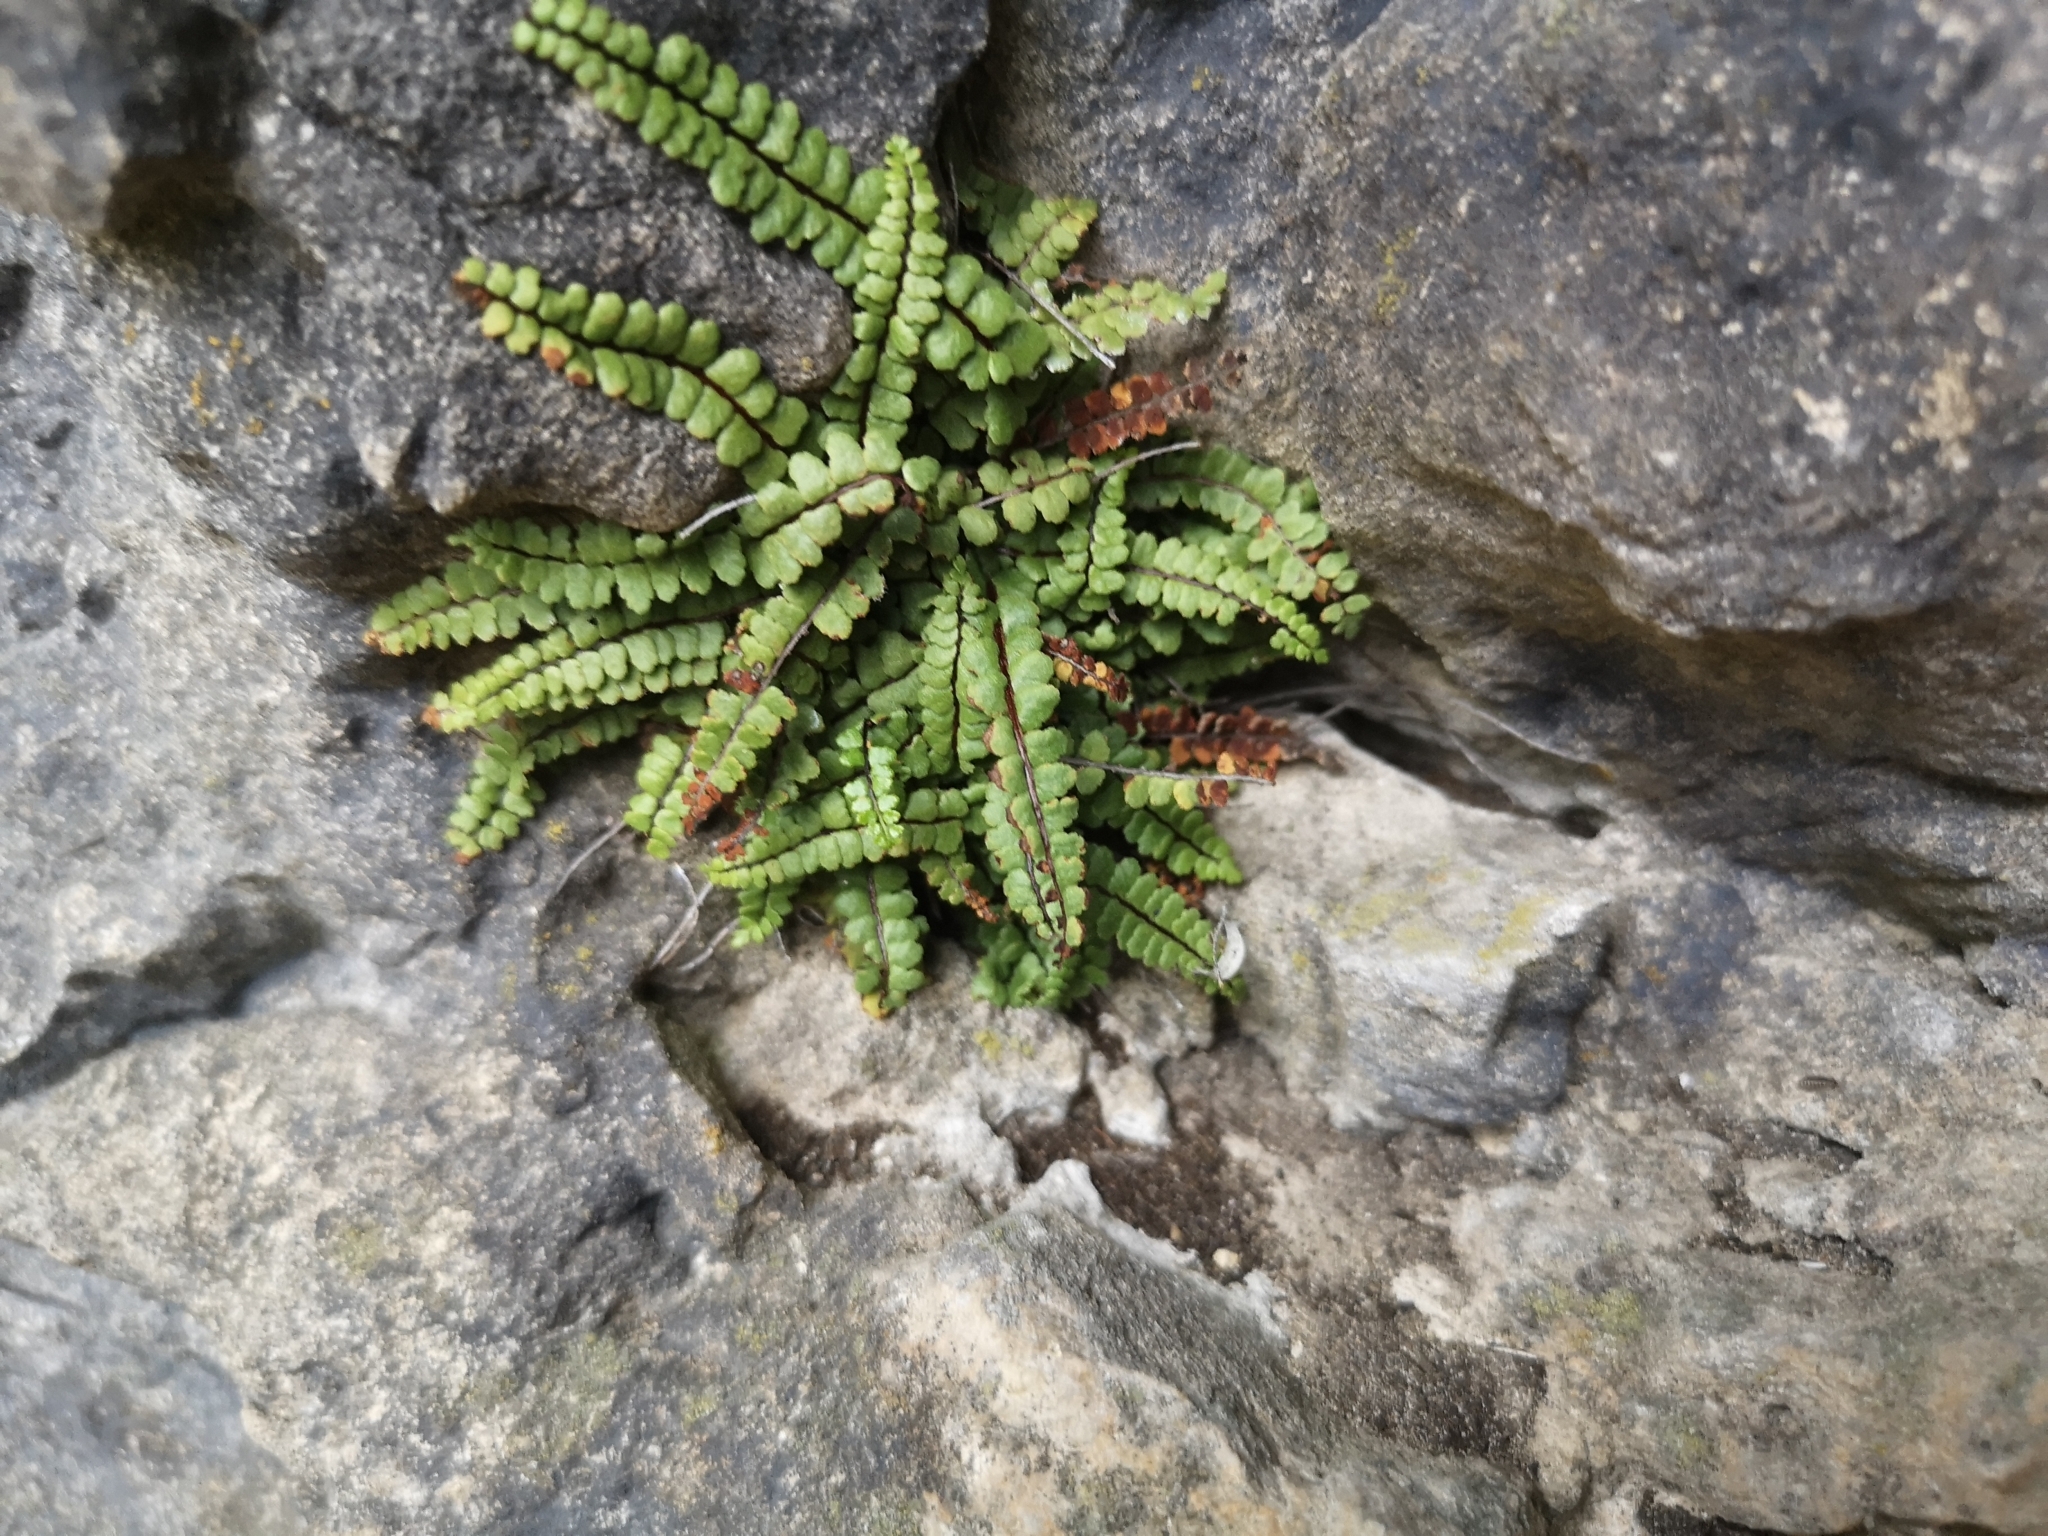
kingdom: Plantae
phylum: Tracheophyta
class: Polypodiopsida
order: Polypodiales
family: Aspleniaceae
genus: Asplenium
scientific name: Asplenium trichomanes
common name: Maidenhair spleenwort
